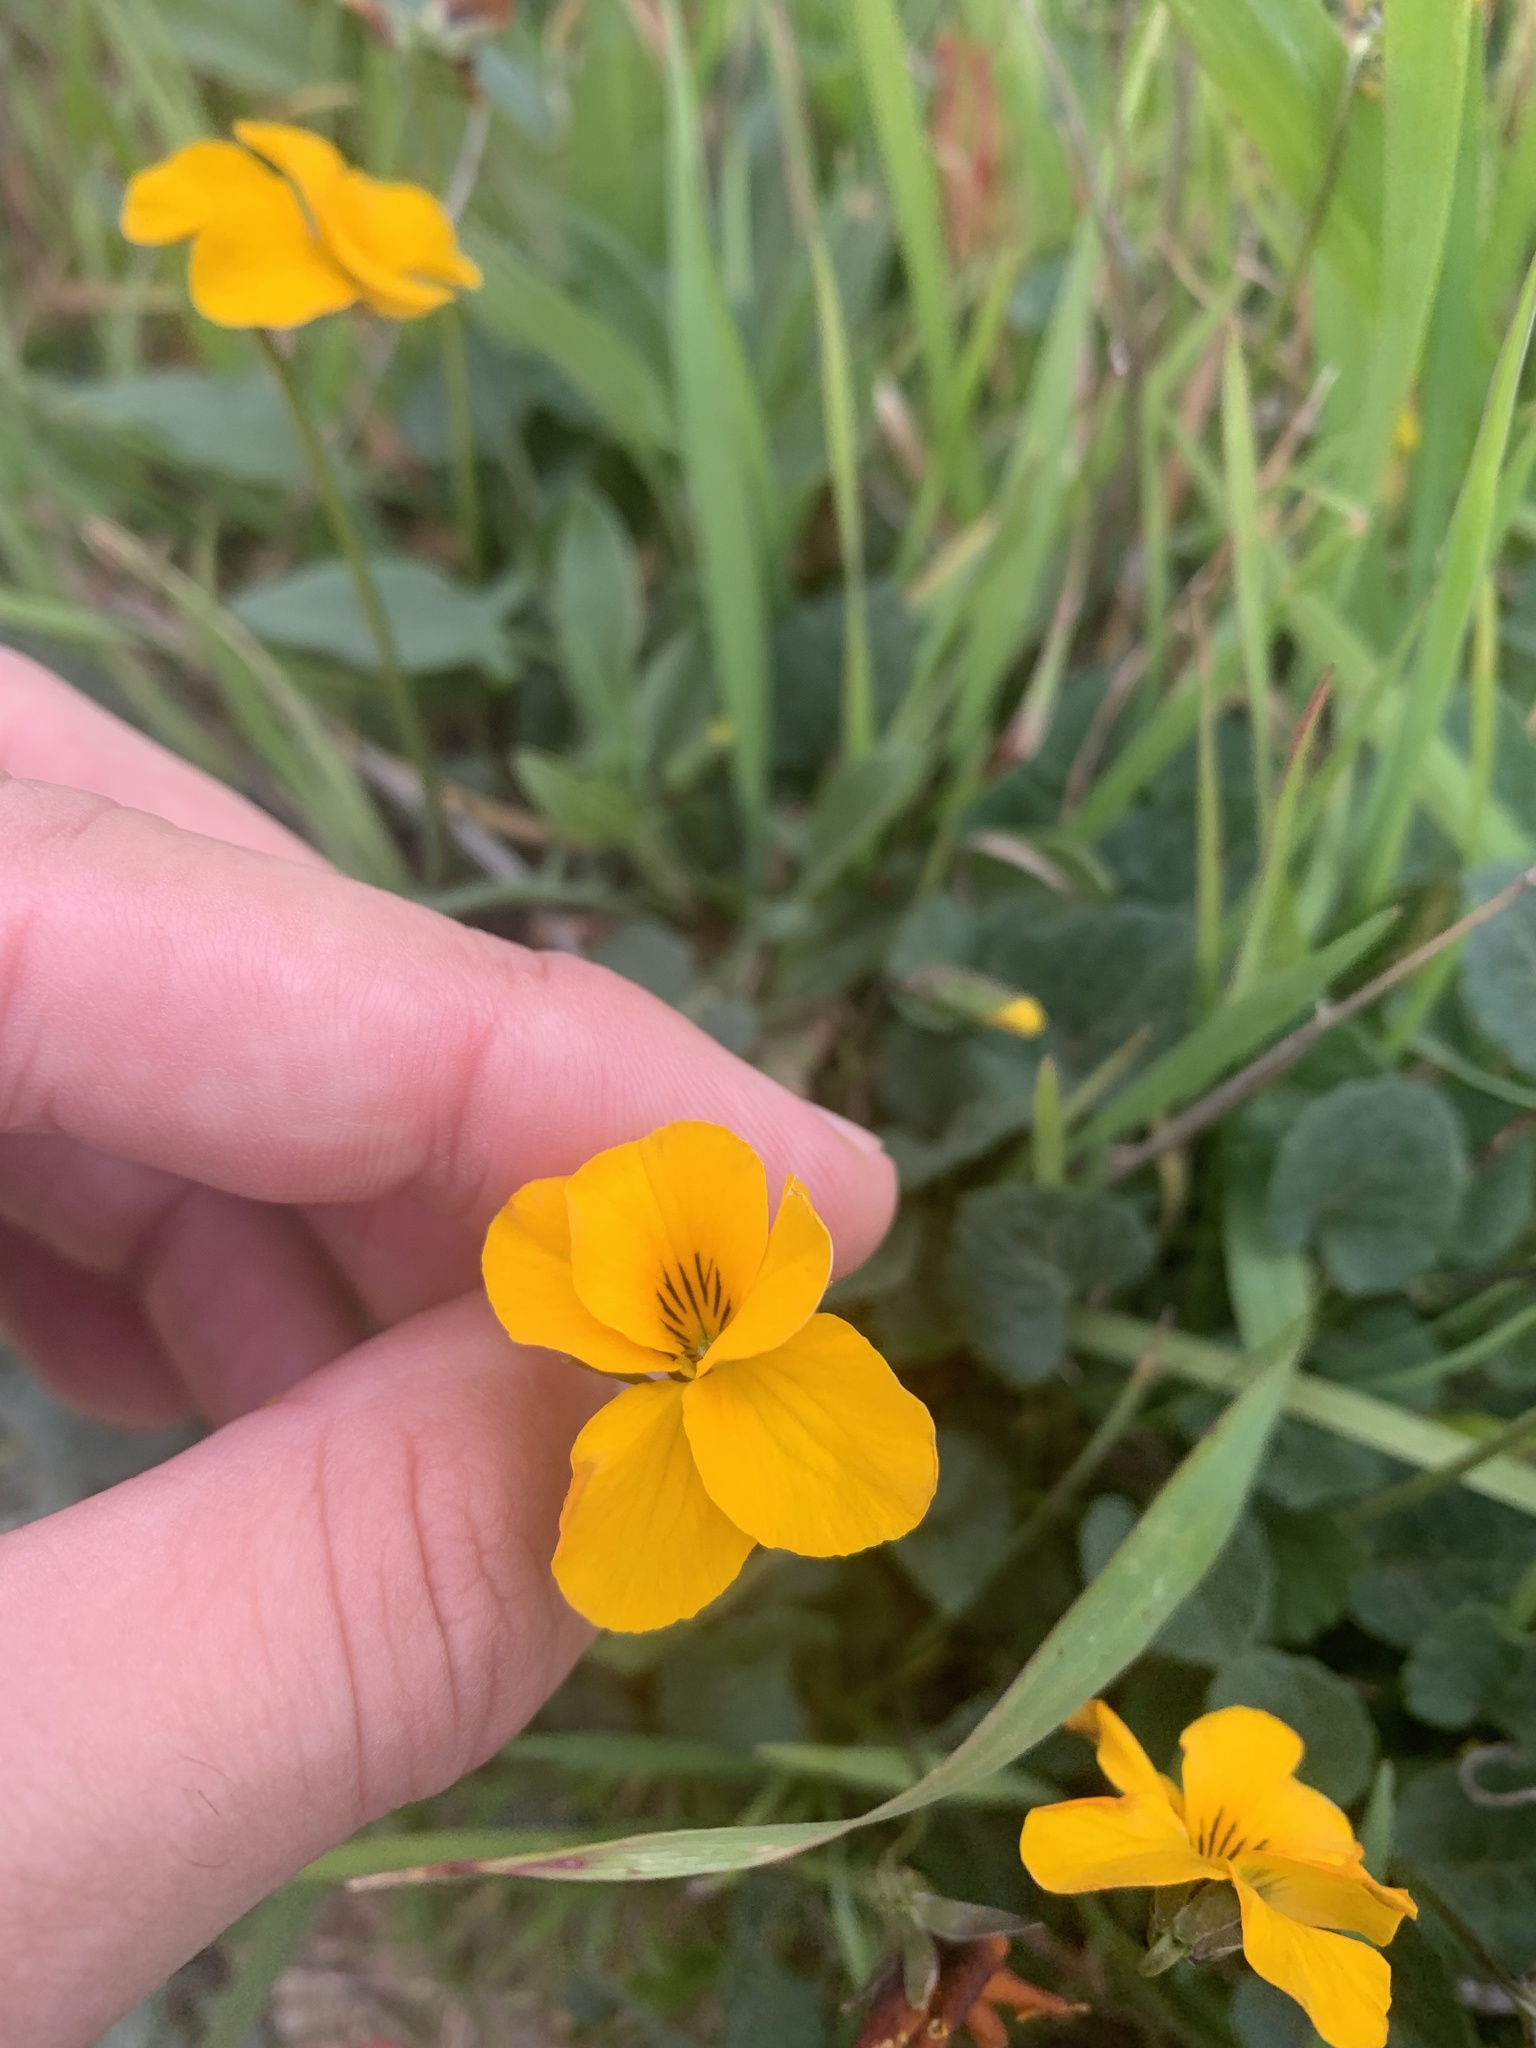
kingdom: Plantae
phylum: Tracheophyta
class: Magnoliopsida
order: Malpighiales
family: Violaceae
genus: Viola
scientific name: Viola pedunculata
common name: California golden violet
